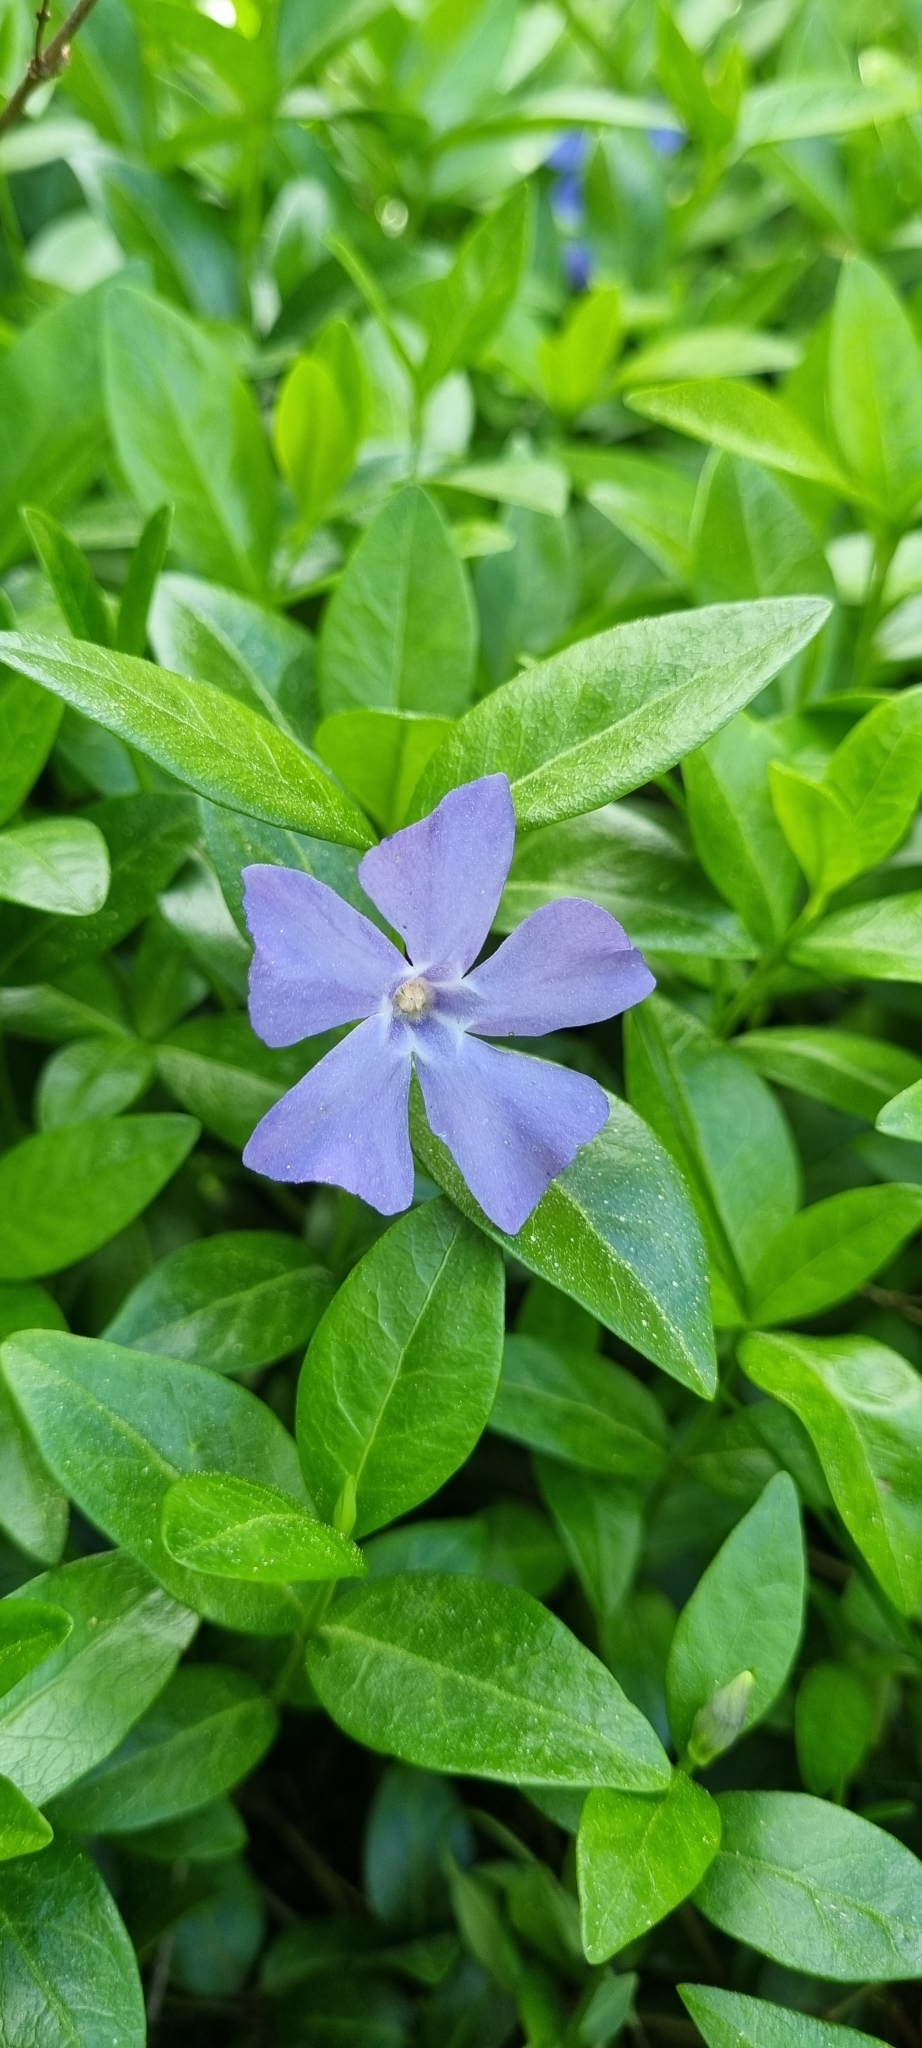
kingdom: Plantae
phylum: Tracheophyta
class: Magnoliopsida
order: Gentianales
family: Apocynaceae
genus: Vinca
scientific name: Vinca minor
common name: Lesser periwinkle
